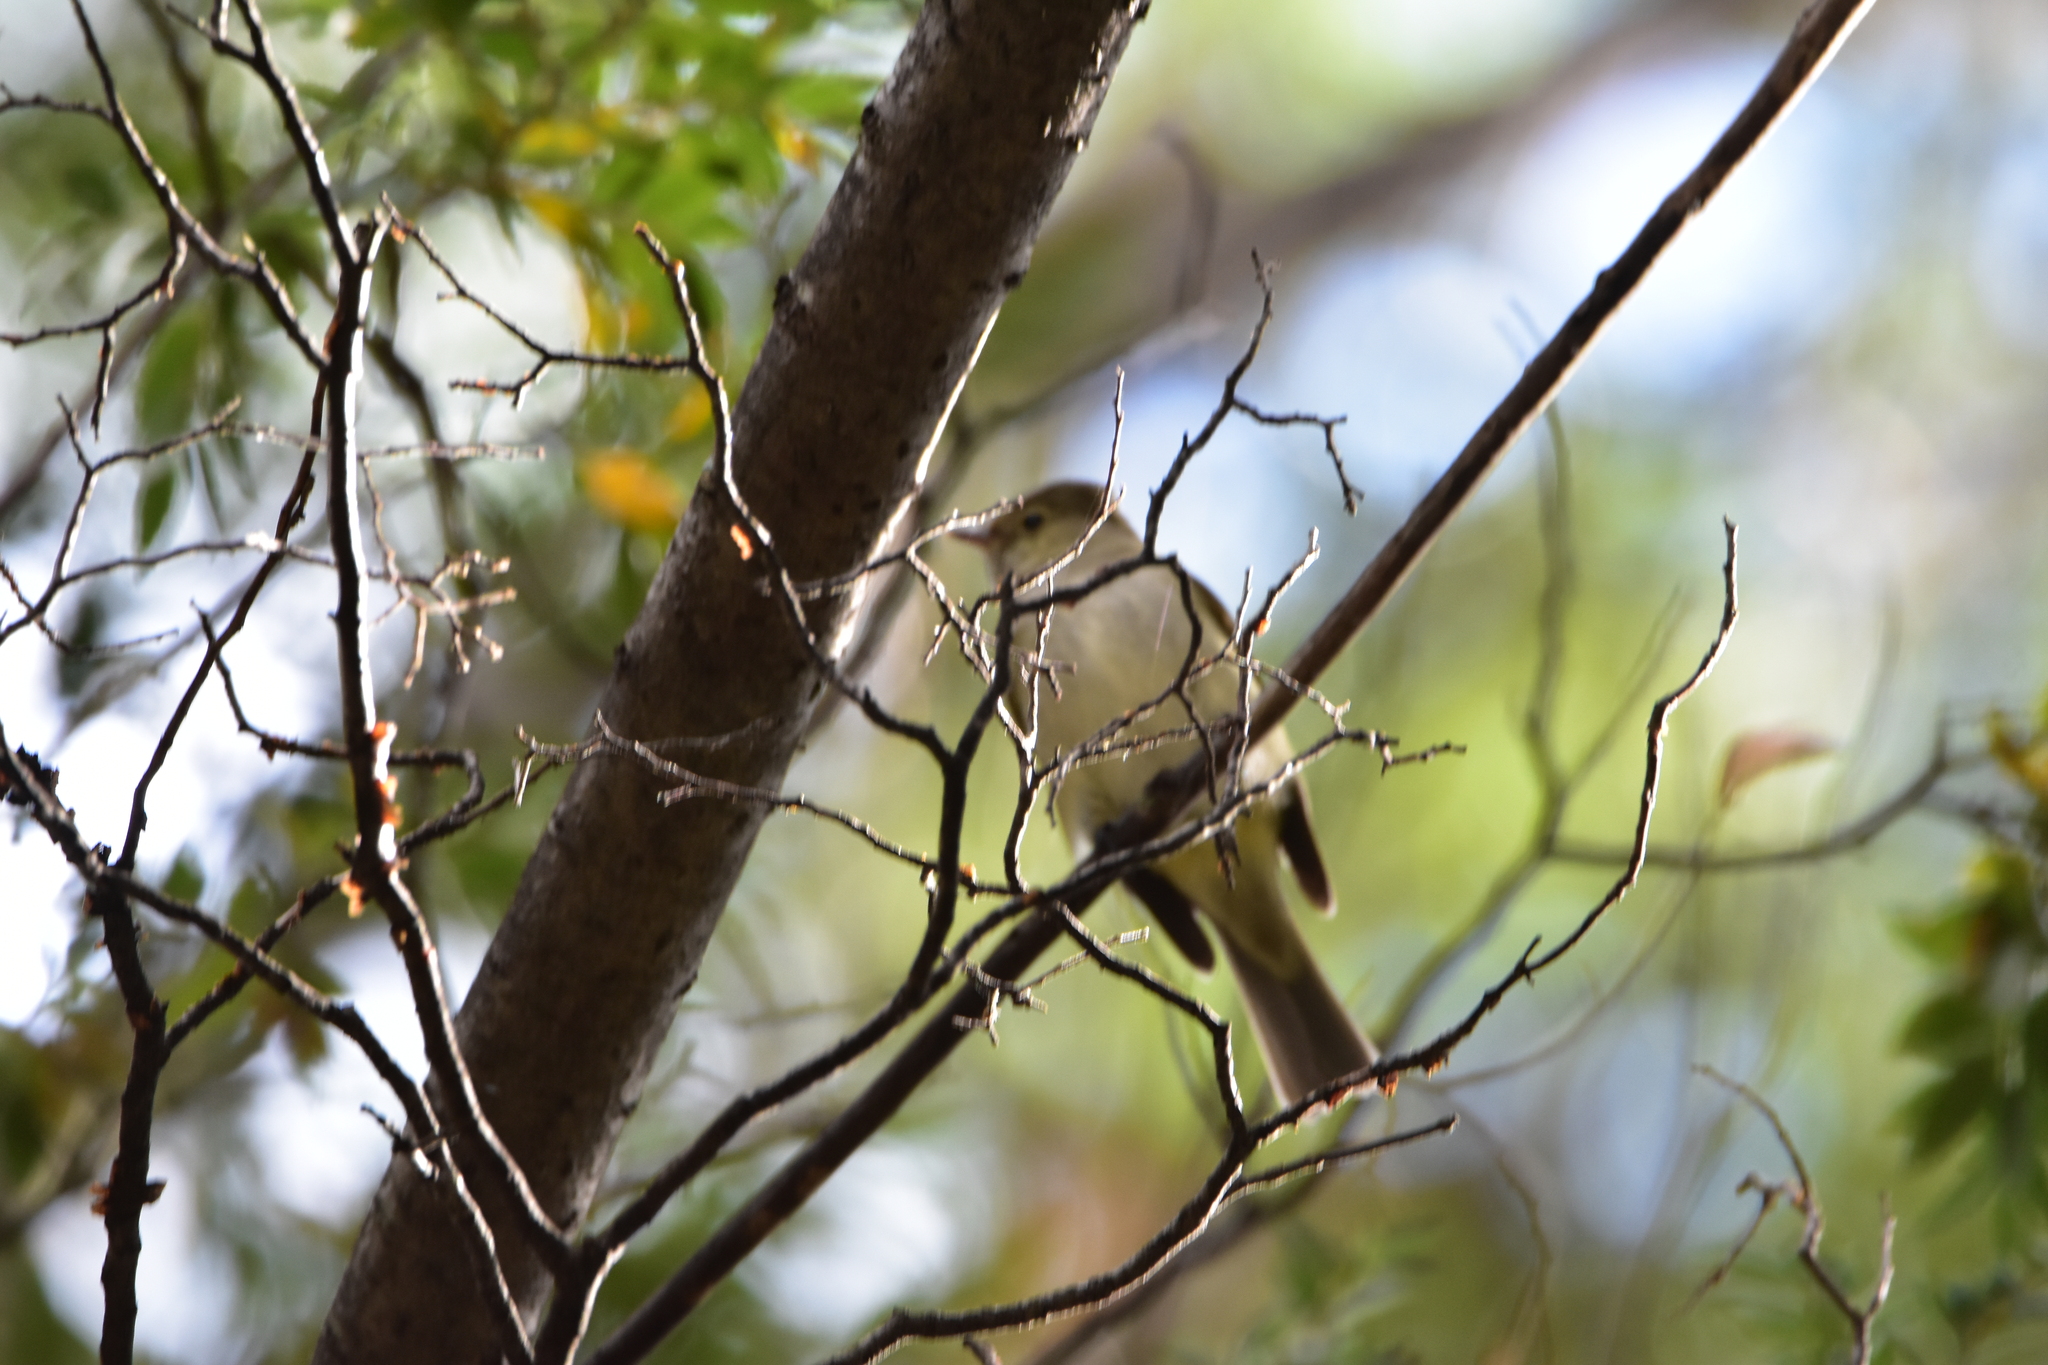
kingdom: Animalia
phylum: Chordata
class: Aves
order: Passeriformes
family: Tyrannidae
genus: Elaenia
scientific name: Elaenia albiceps
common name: White-crested elaenia
